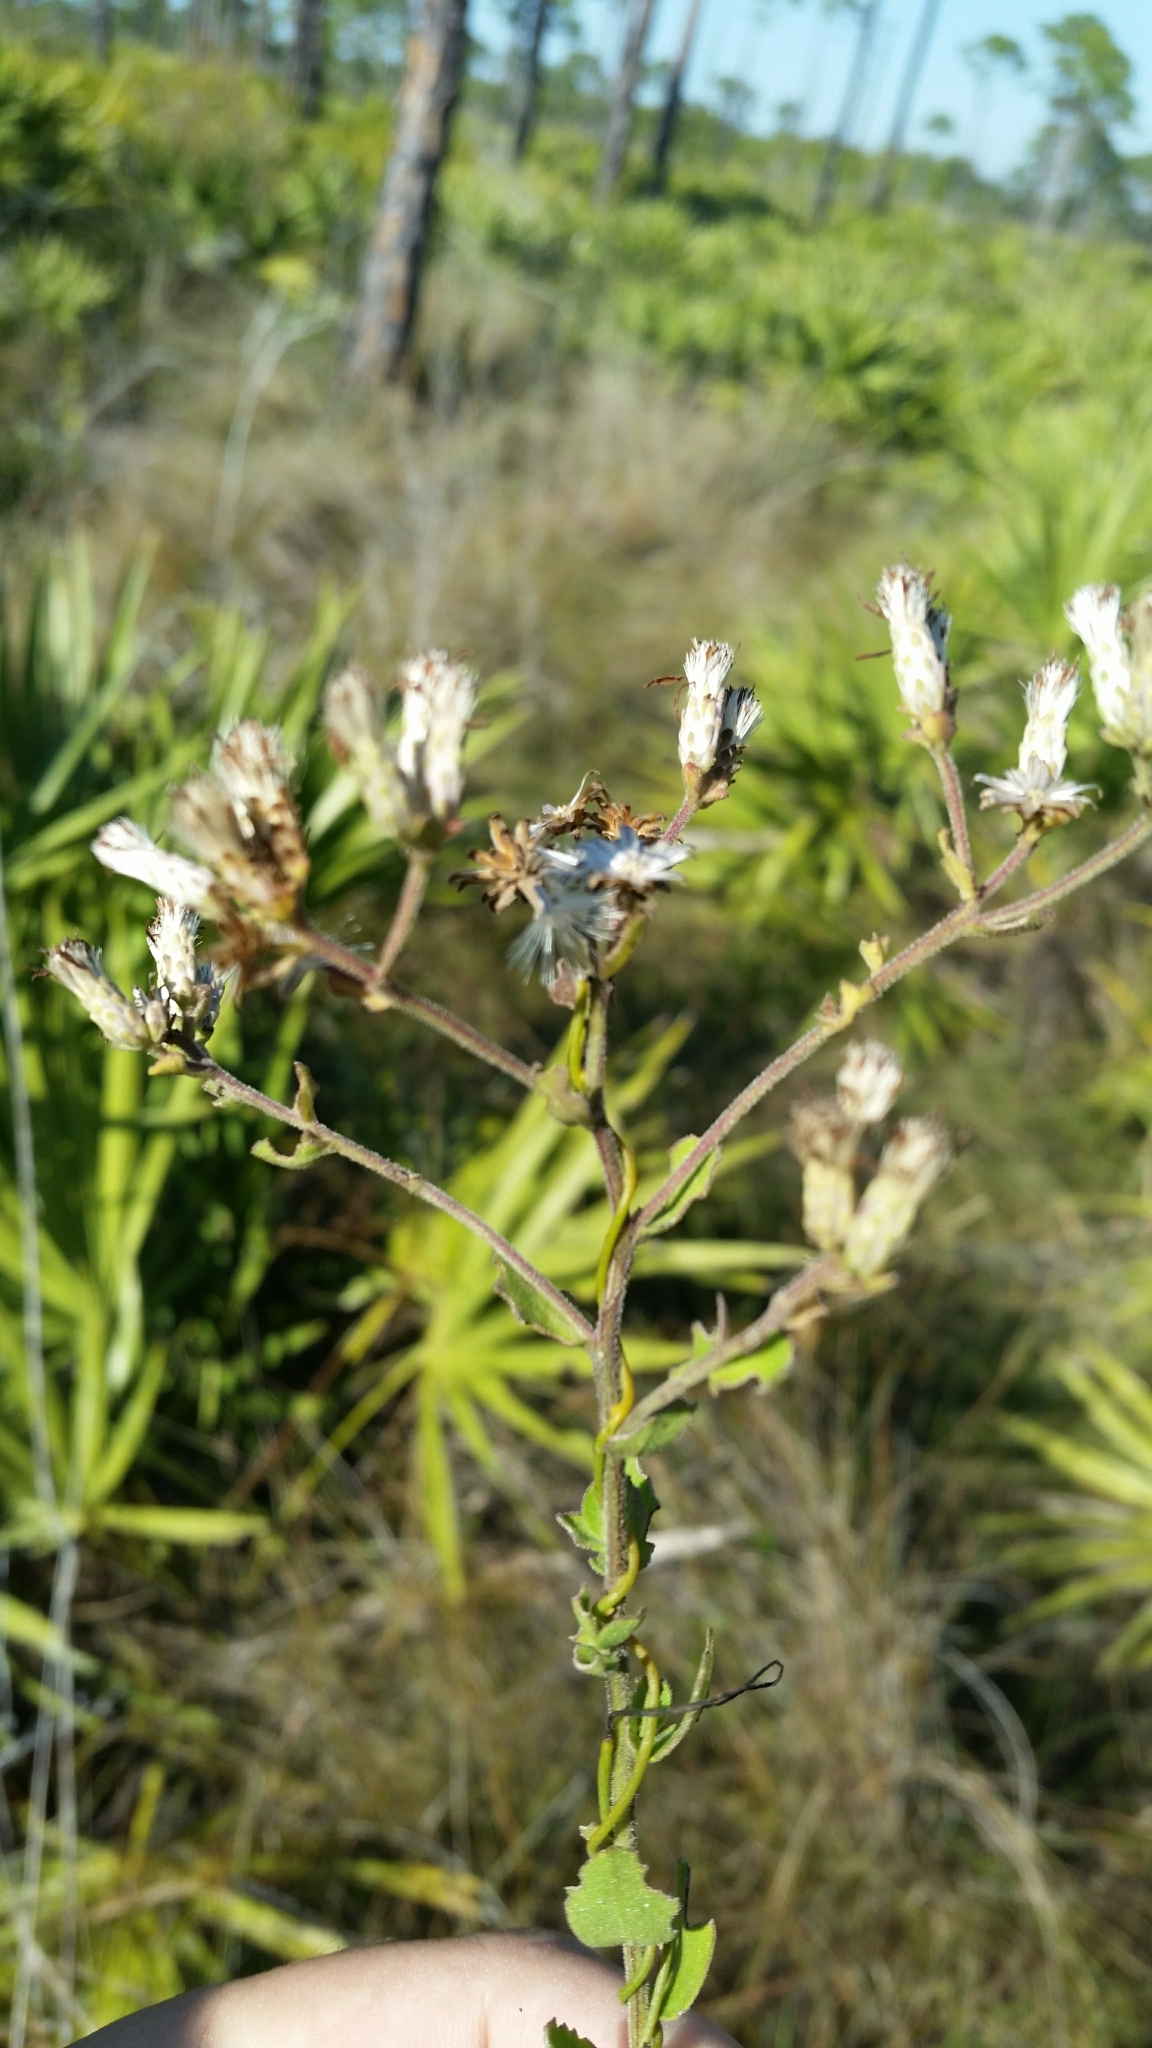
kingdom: Plantae
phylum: Tracheophyta
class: Magnoliopsida
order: Asterales
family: Asteraceae
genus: Sericocarpus
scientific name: Sericocarpus tortifolius
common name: Dixie aster
